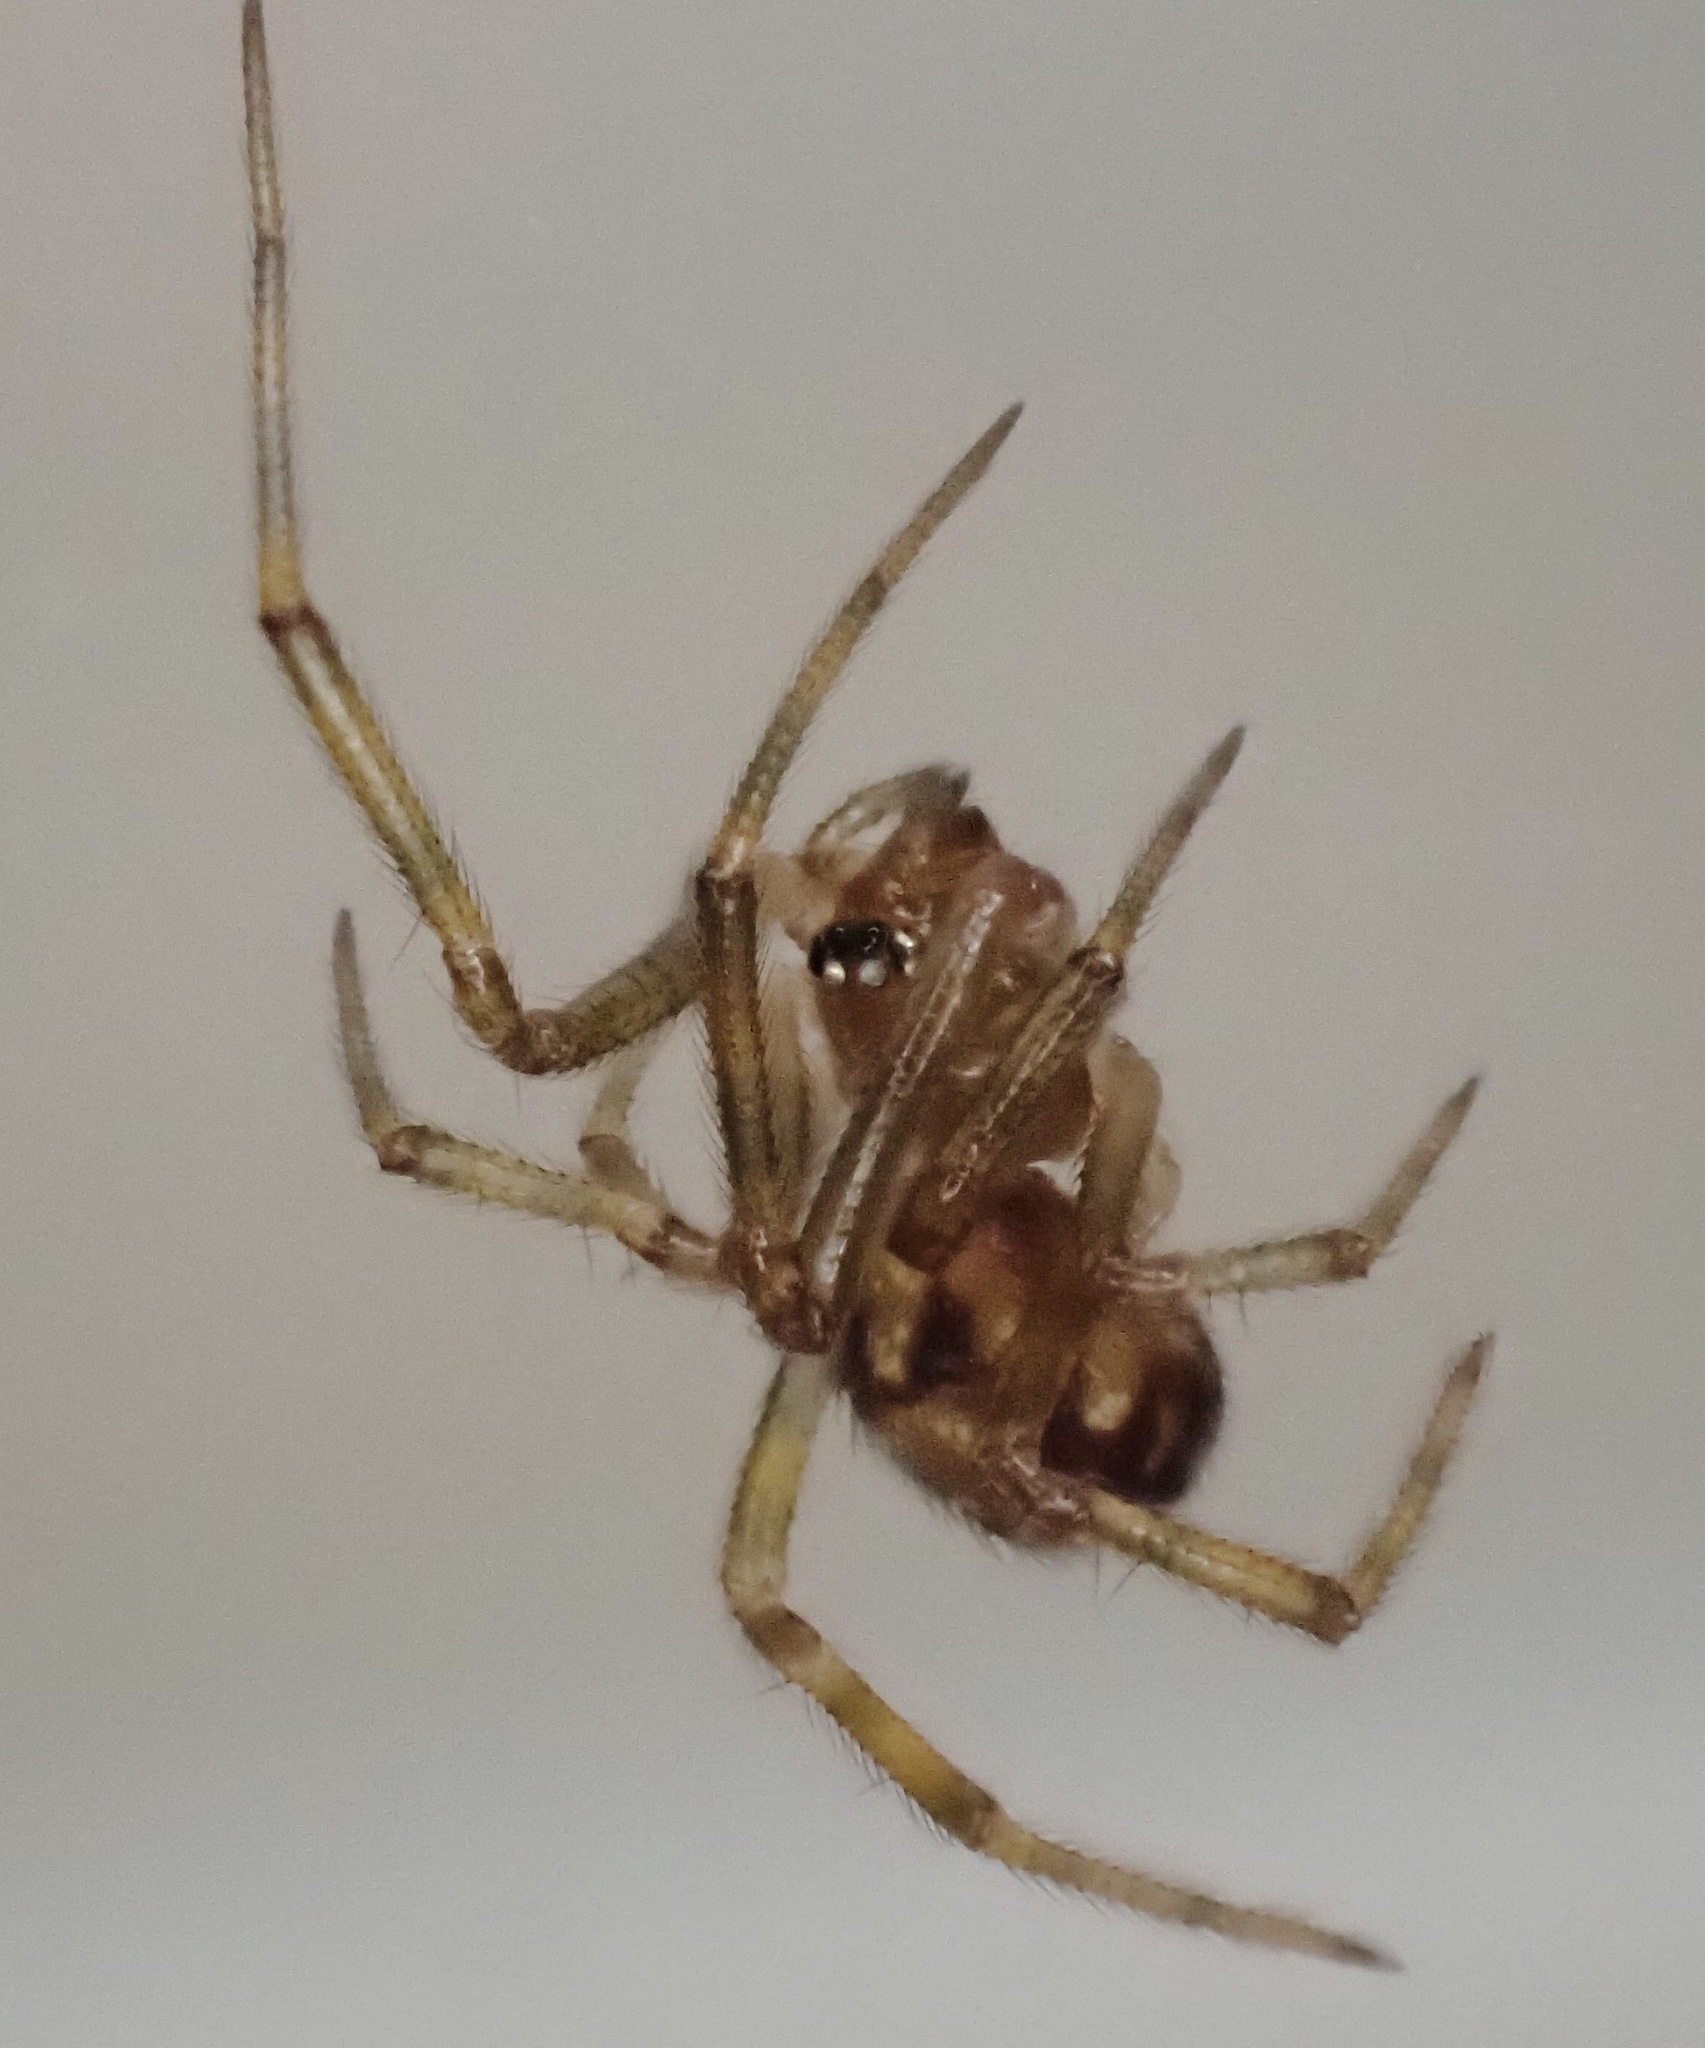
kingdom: Animalia
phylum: Arthropoda
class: Arachnida
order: Araneae
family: Theridiidae
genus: Steatoda
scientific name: Steatoda triangulosa
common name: Triangulate bud spider
